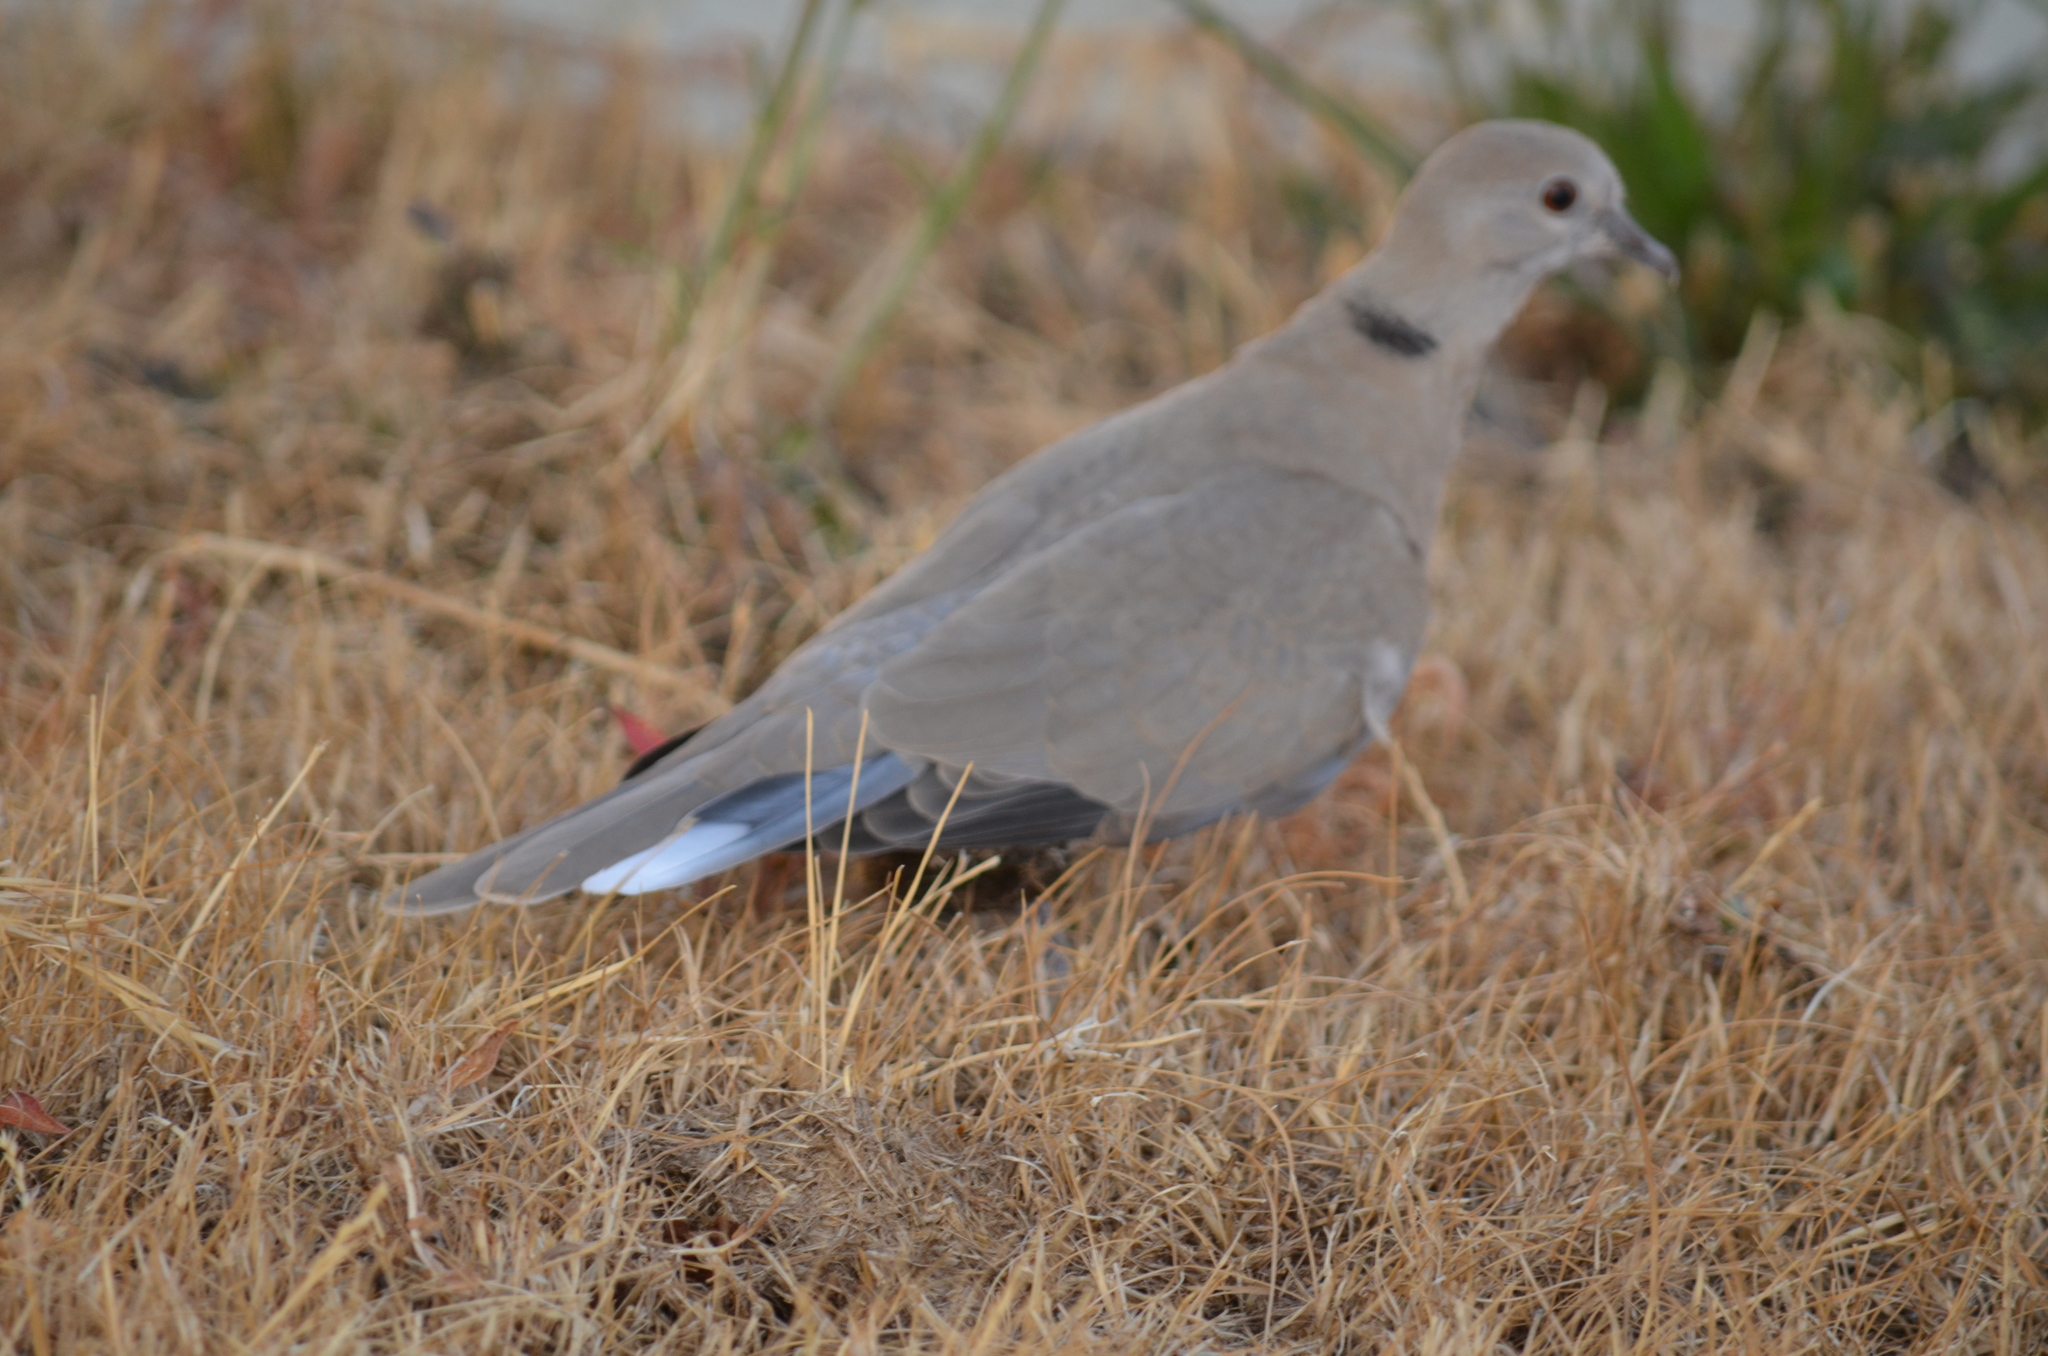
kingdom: Animalia
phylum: Chordata
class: Aves
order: Columbiformes
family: Columbidae
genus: Streptopelia
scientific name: Streptopelia decaocto
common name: Eurasian collared dove
